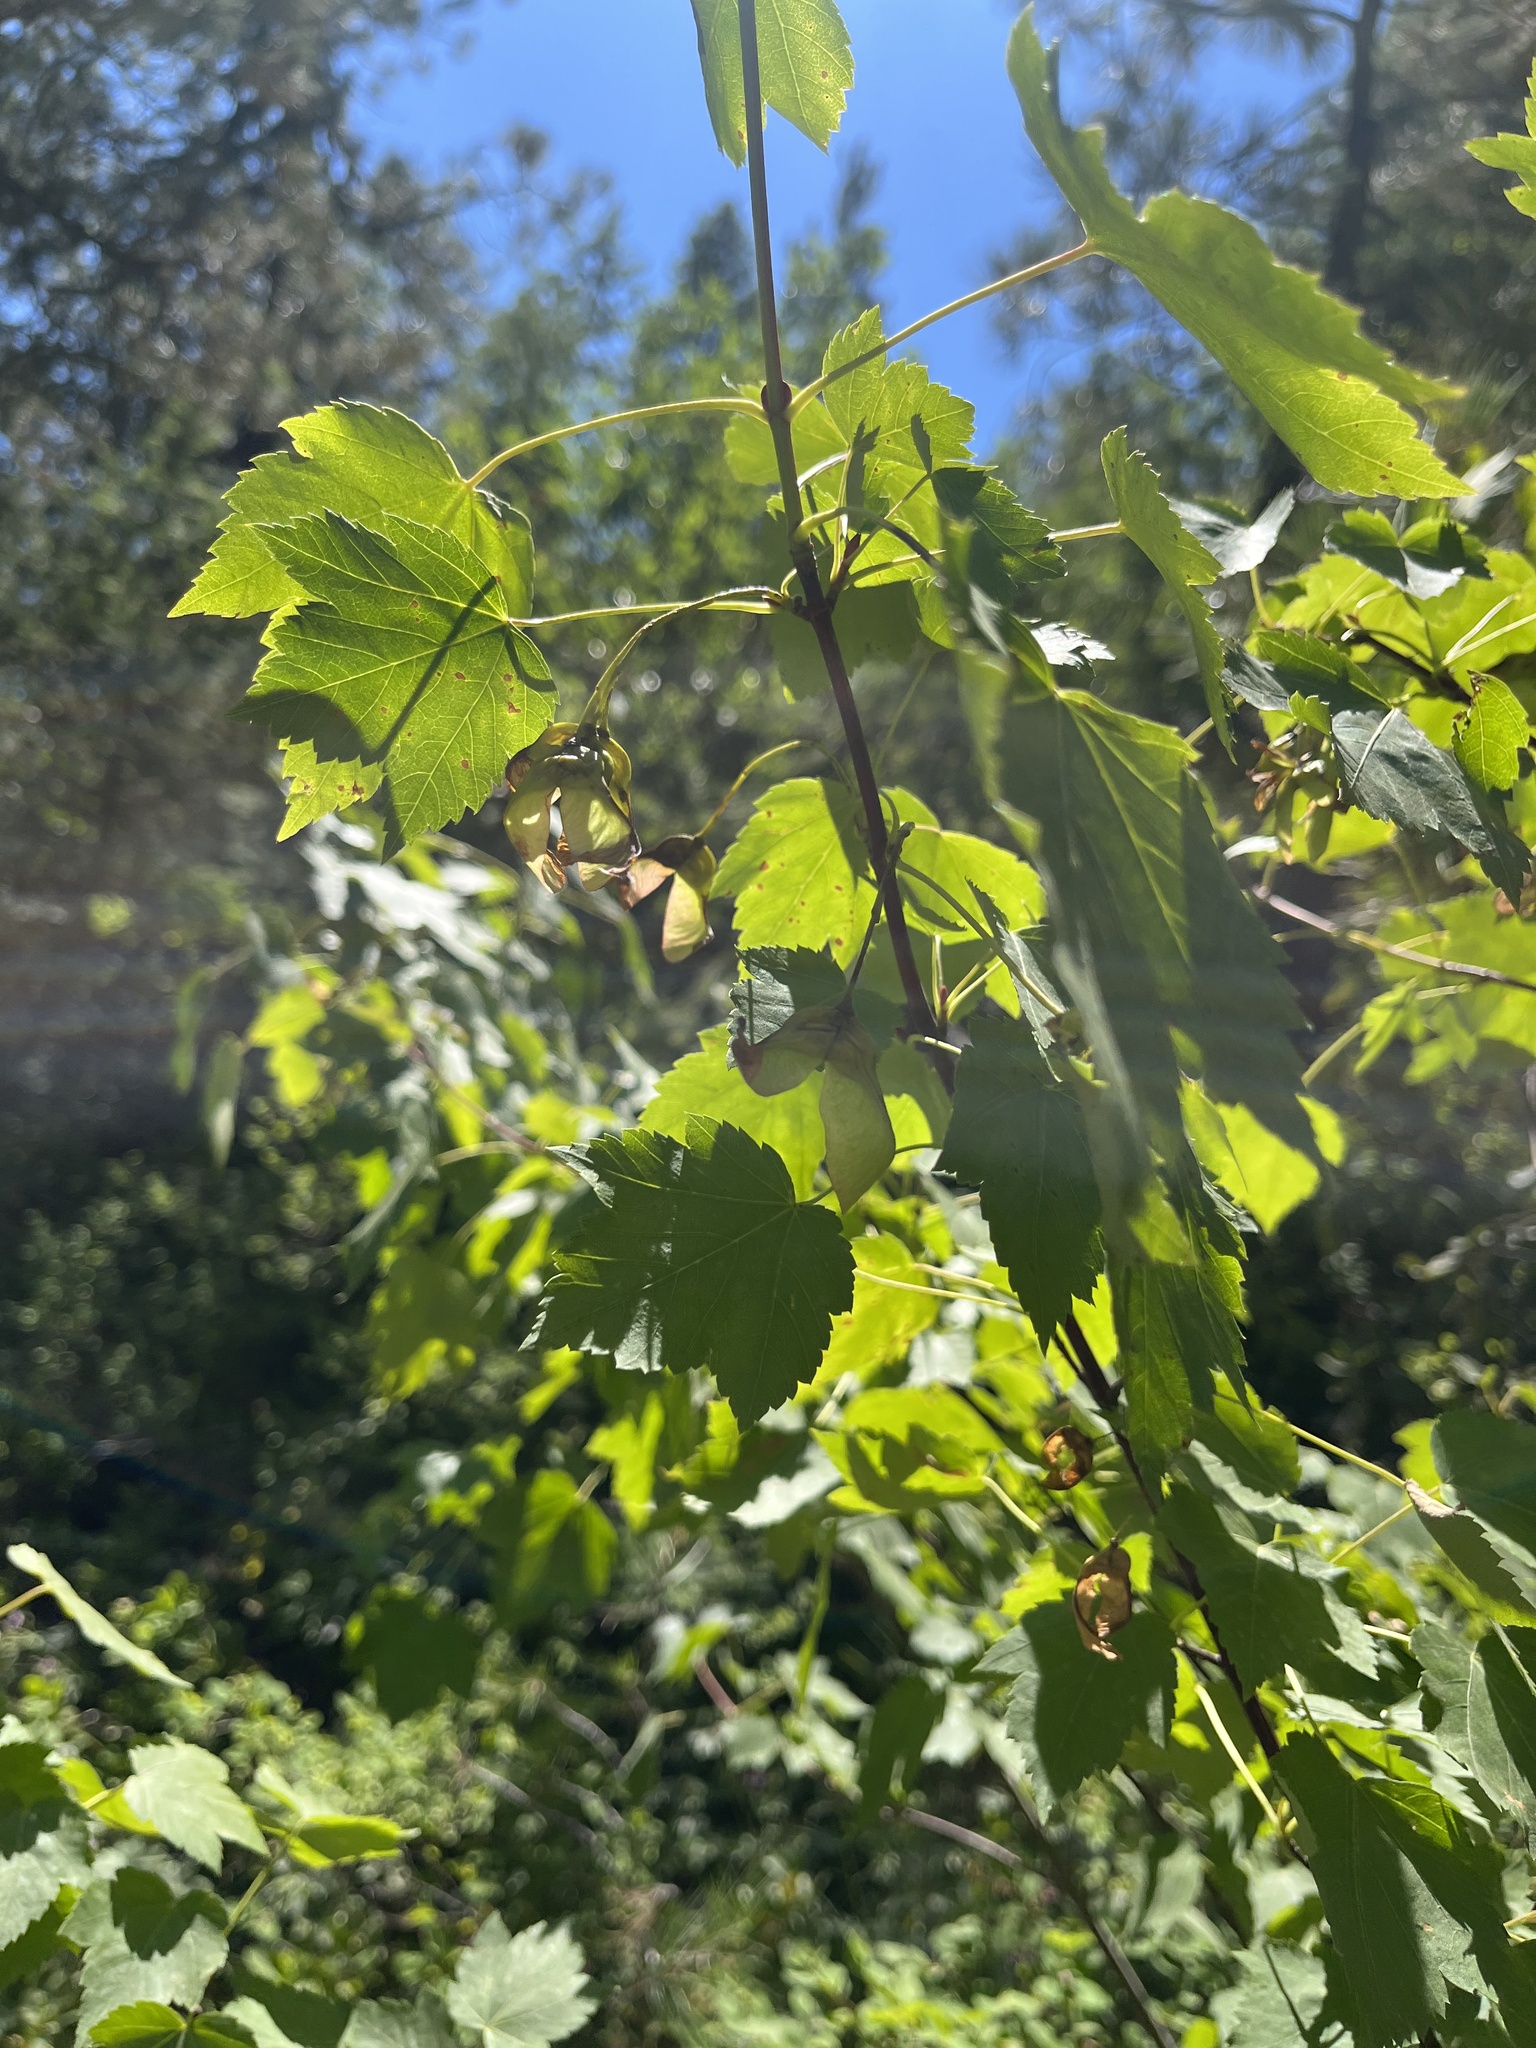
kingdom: Plantae
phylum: Tracheophyta
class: Magnoliopsida
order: Sapindales
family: Sapindaceae
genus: Acer
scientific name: Acer glabrum
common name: Rocky mountain maple
